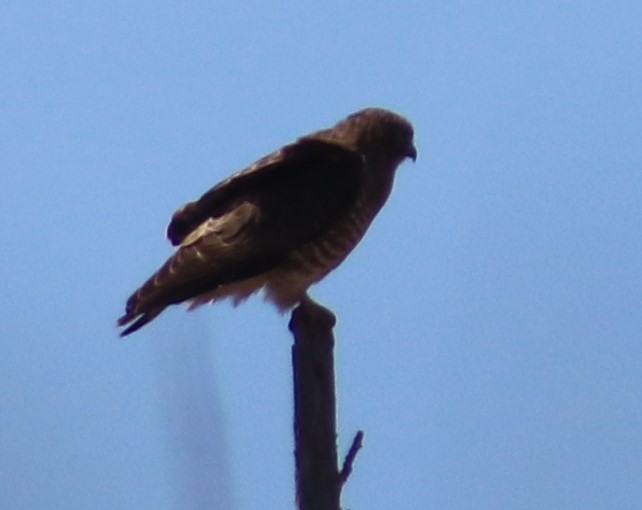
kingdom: Animalia
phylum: Chordata
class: Aves
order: Accipitriformes
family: Accipitridae
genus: Buteo
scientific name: Buteo platypterus
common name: Broad-winged hawk
